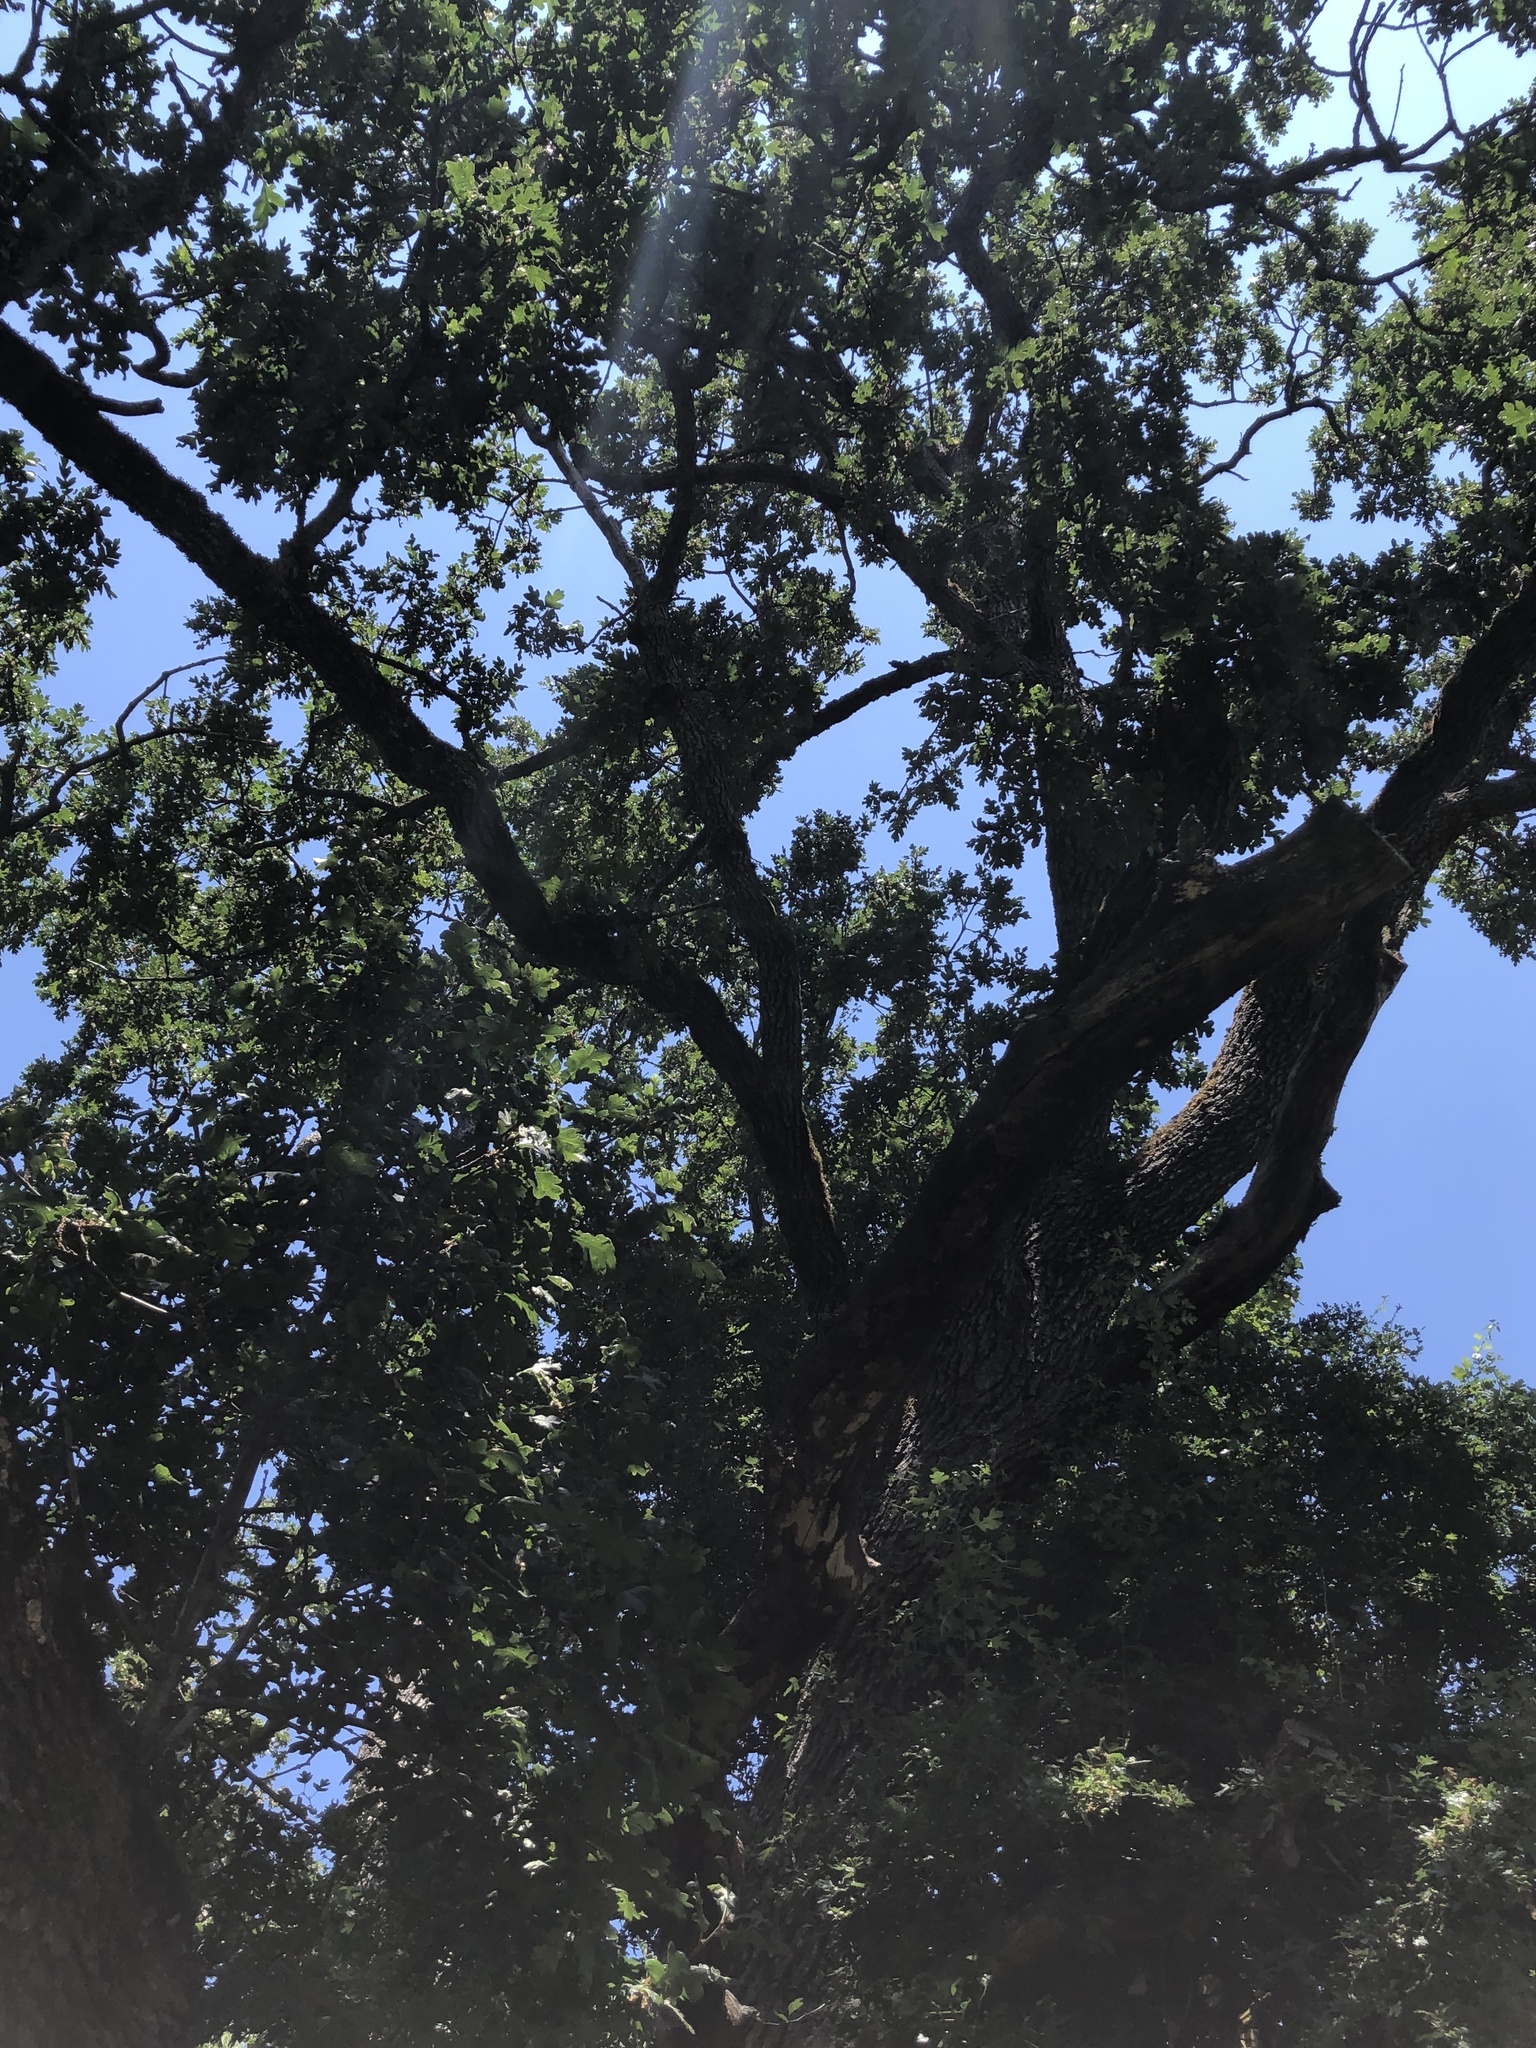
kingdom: Plantae
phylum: Tracheophyta
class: Magnoliopsida
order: Fagales
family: Fagaceae
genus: Quercus
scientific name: Quercus garryana
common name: Garry oak
